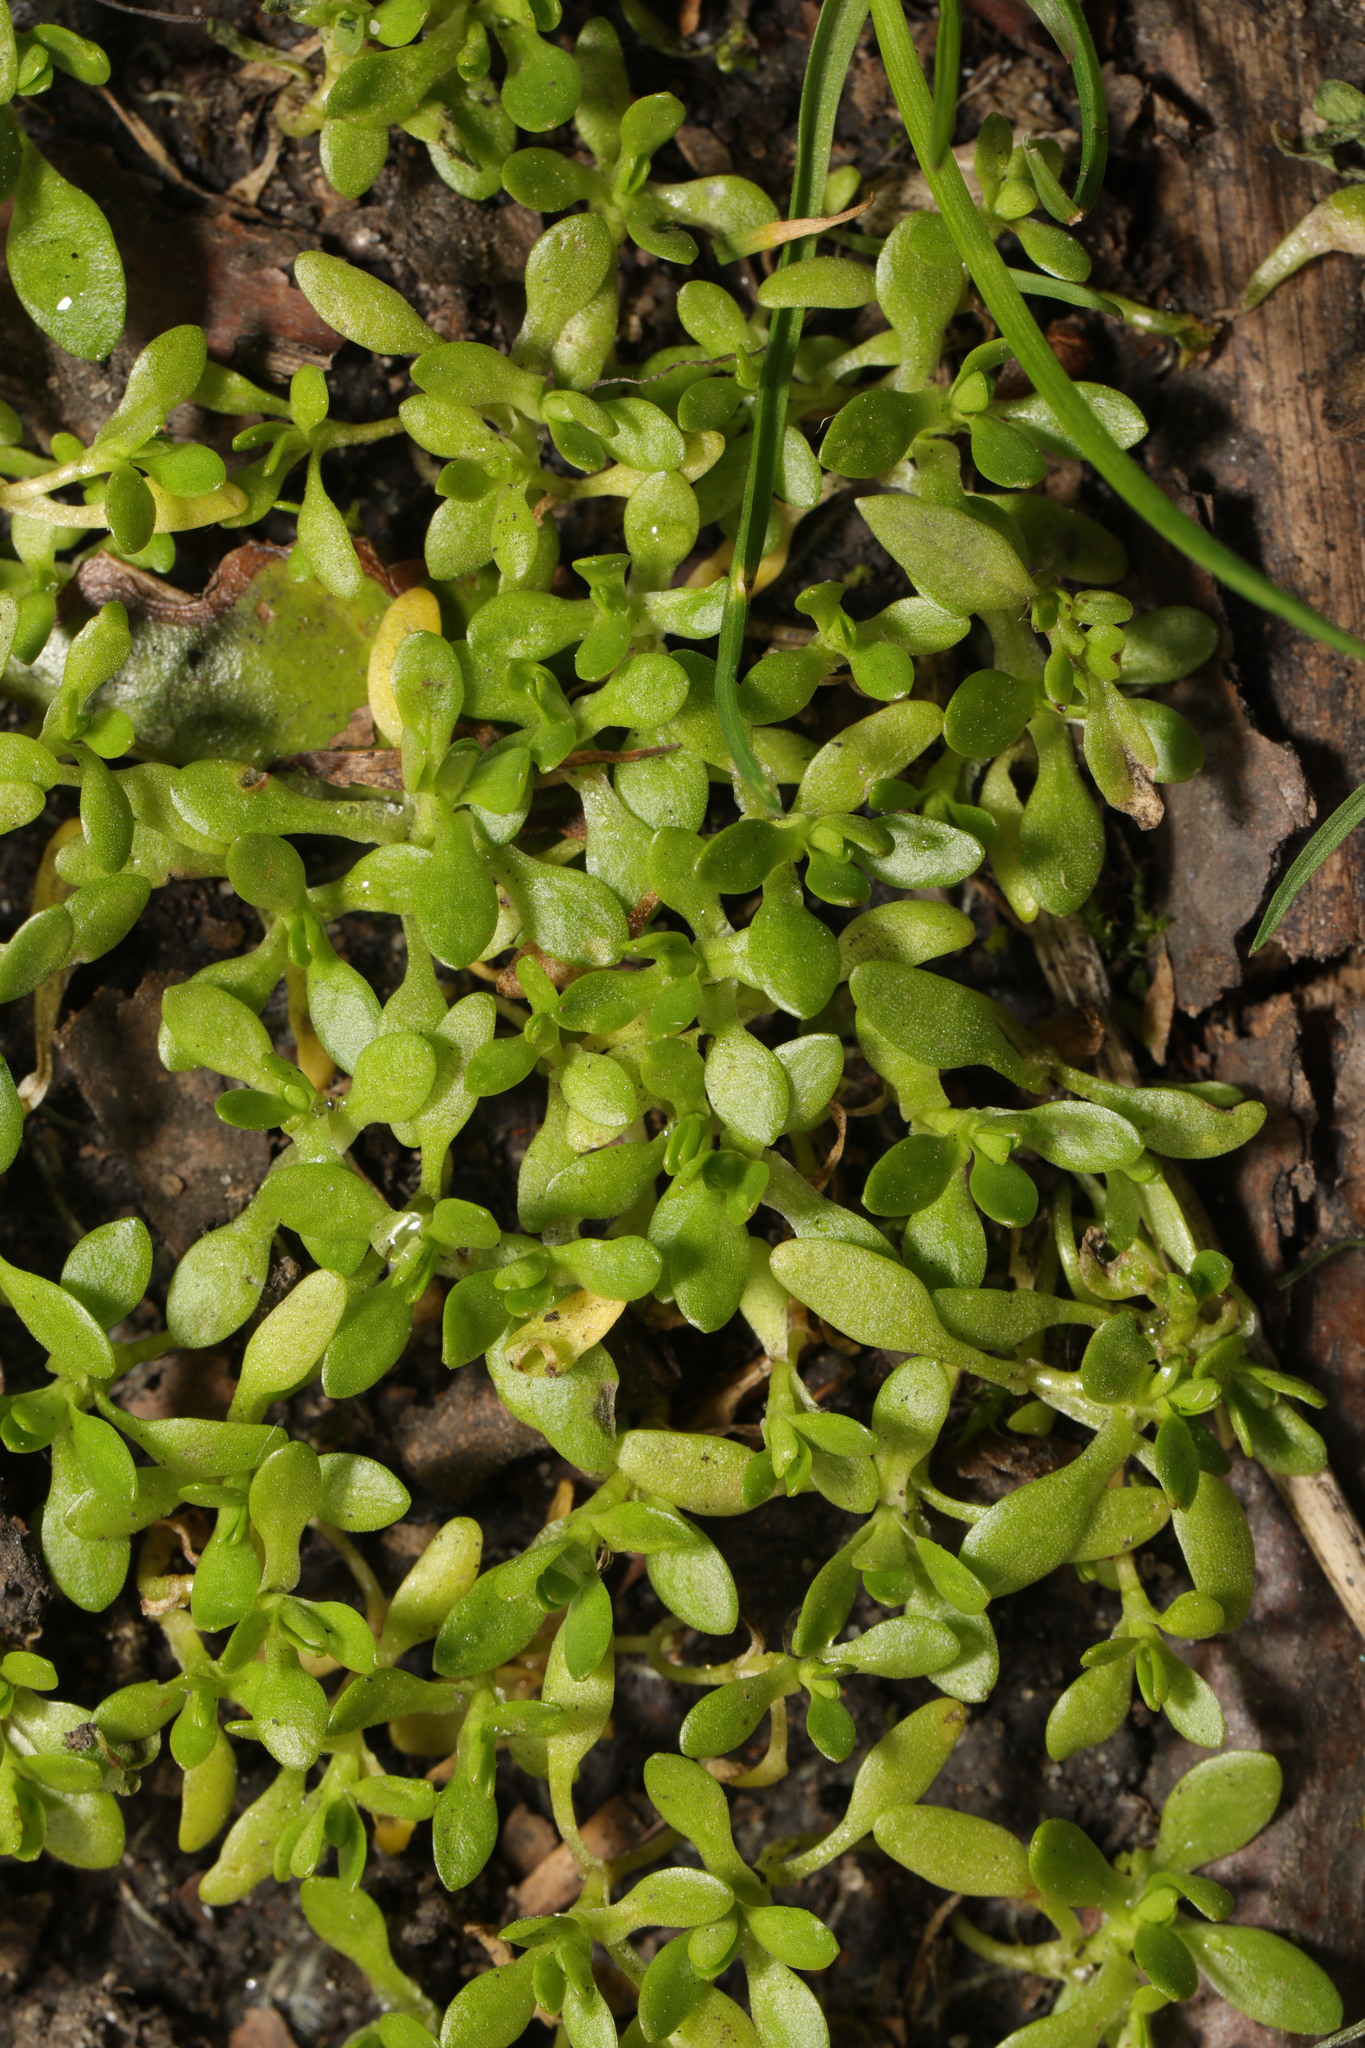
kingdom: Plantae
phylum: Tracheophyta
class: Magnoliopsida
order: Caryophyllales
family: Montiaceae
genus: Montia
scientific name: Montia fontana
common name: Blinks
